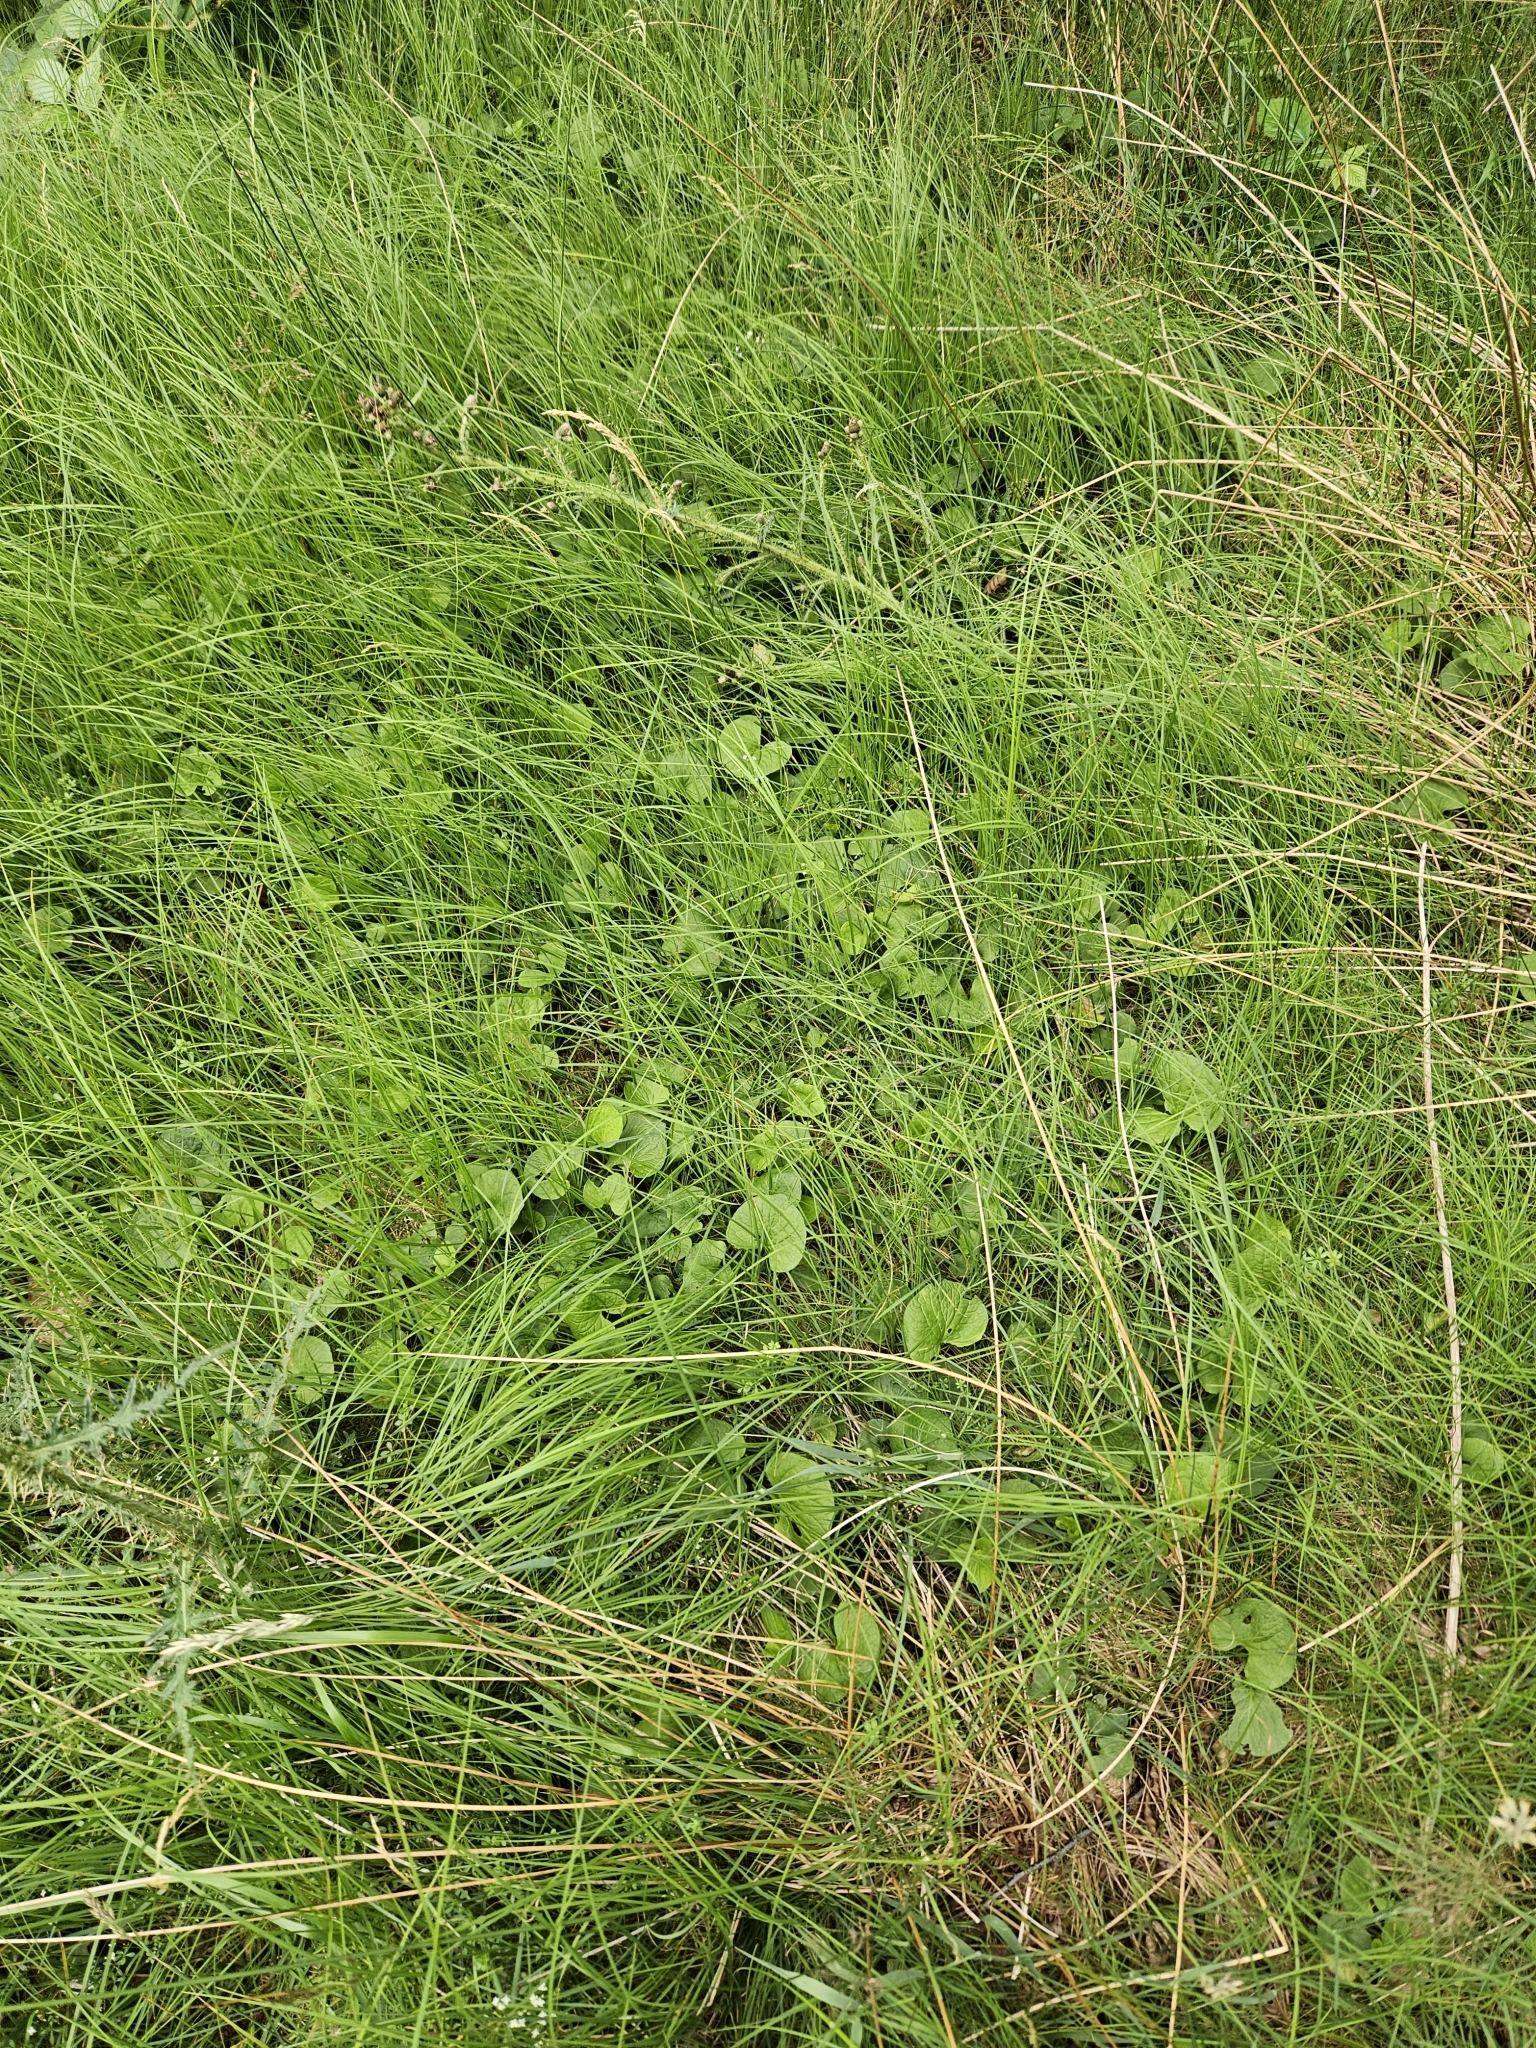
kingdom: Plantae
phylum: Tracheophyta
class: Magnoliopsida
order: Malpighiales
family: Violaceae
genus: Viola
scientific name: Viola palustris
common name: Marsh violet
